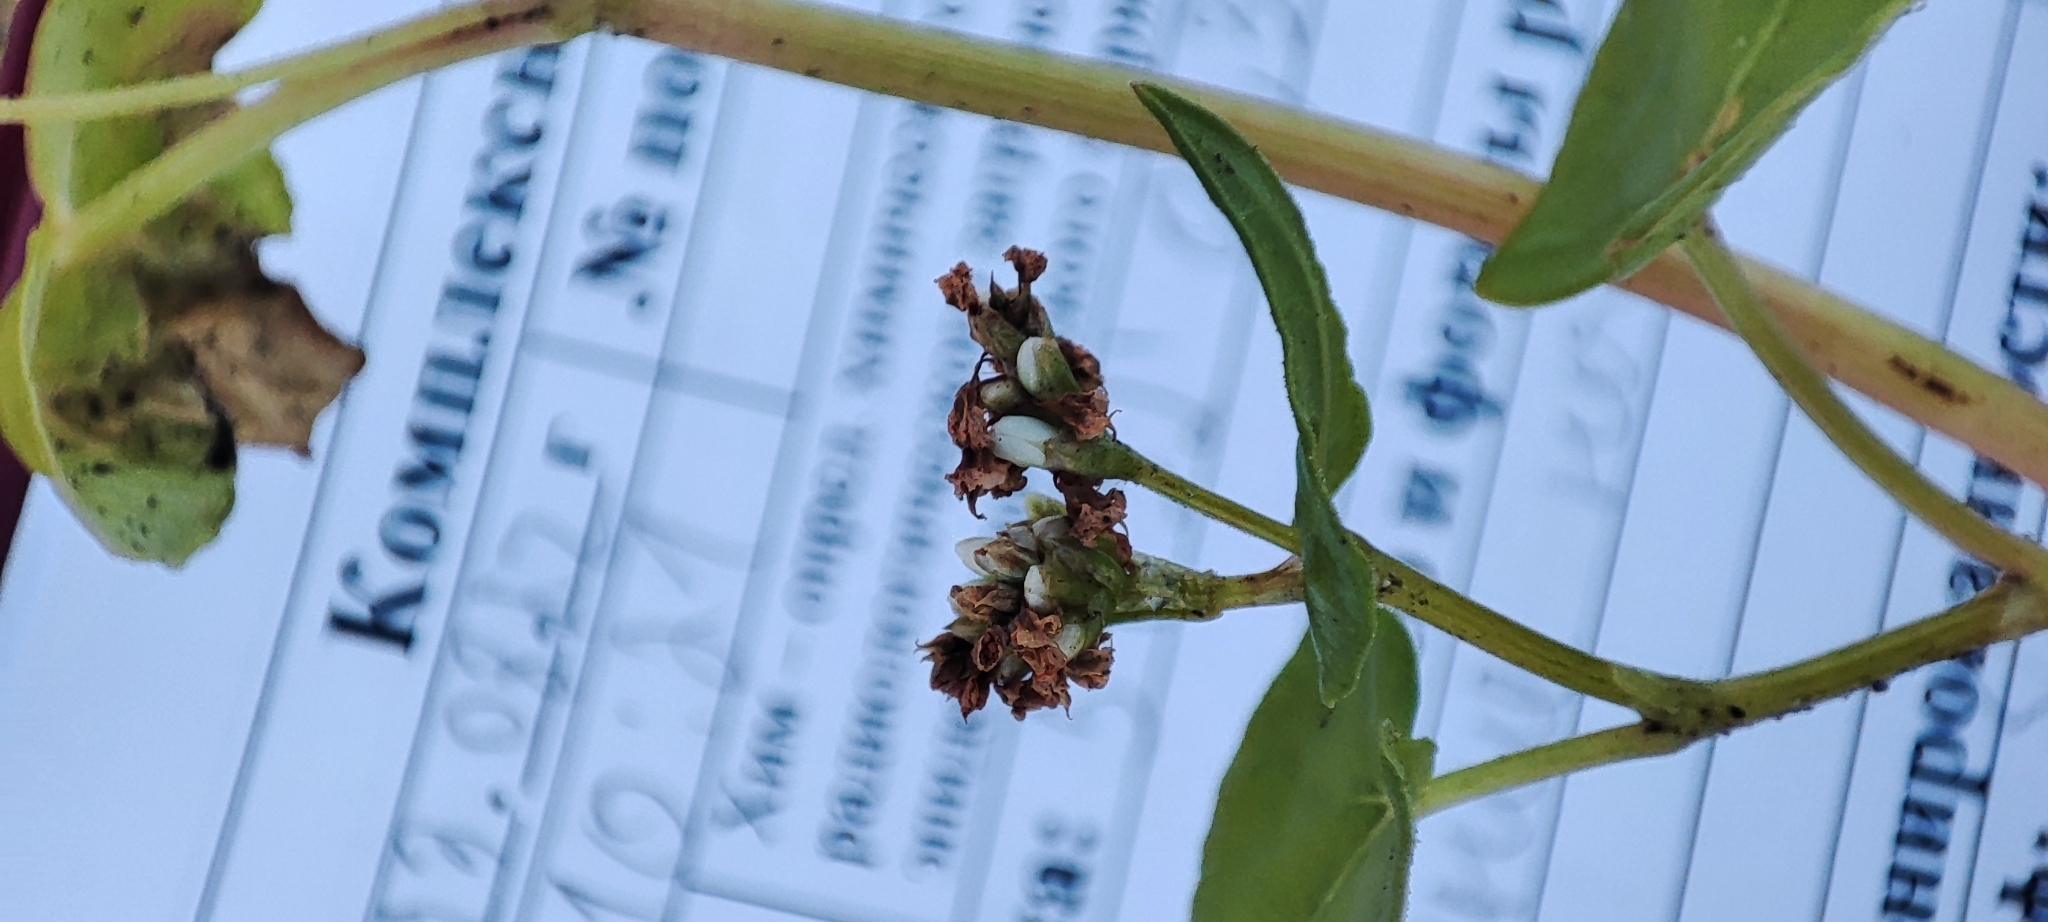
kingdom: Plantae
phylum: Tracheophyta
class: Magnoliopsida
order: Caryophyllales
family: Polygonaceae
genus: Fagopyrum
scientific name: Fagopyrum esculentum
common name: Buckwheat
